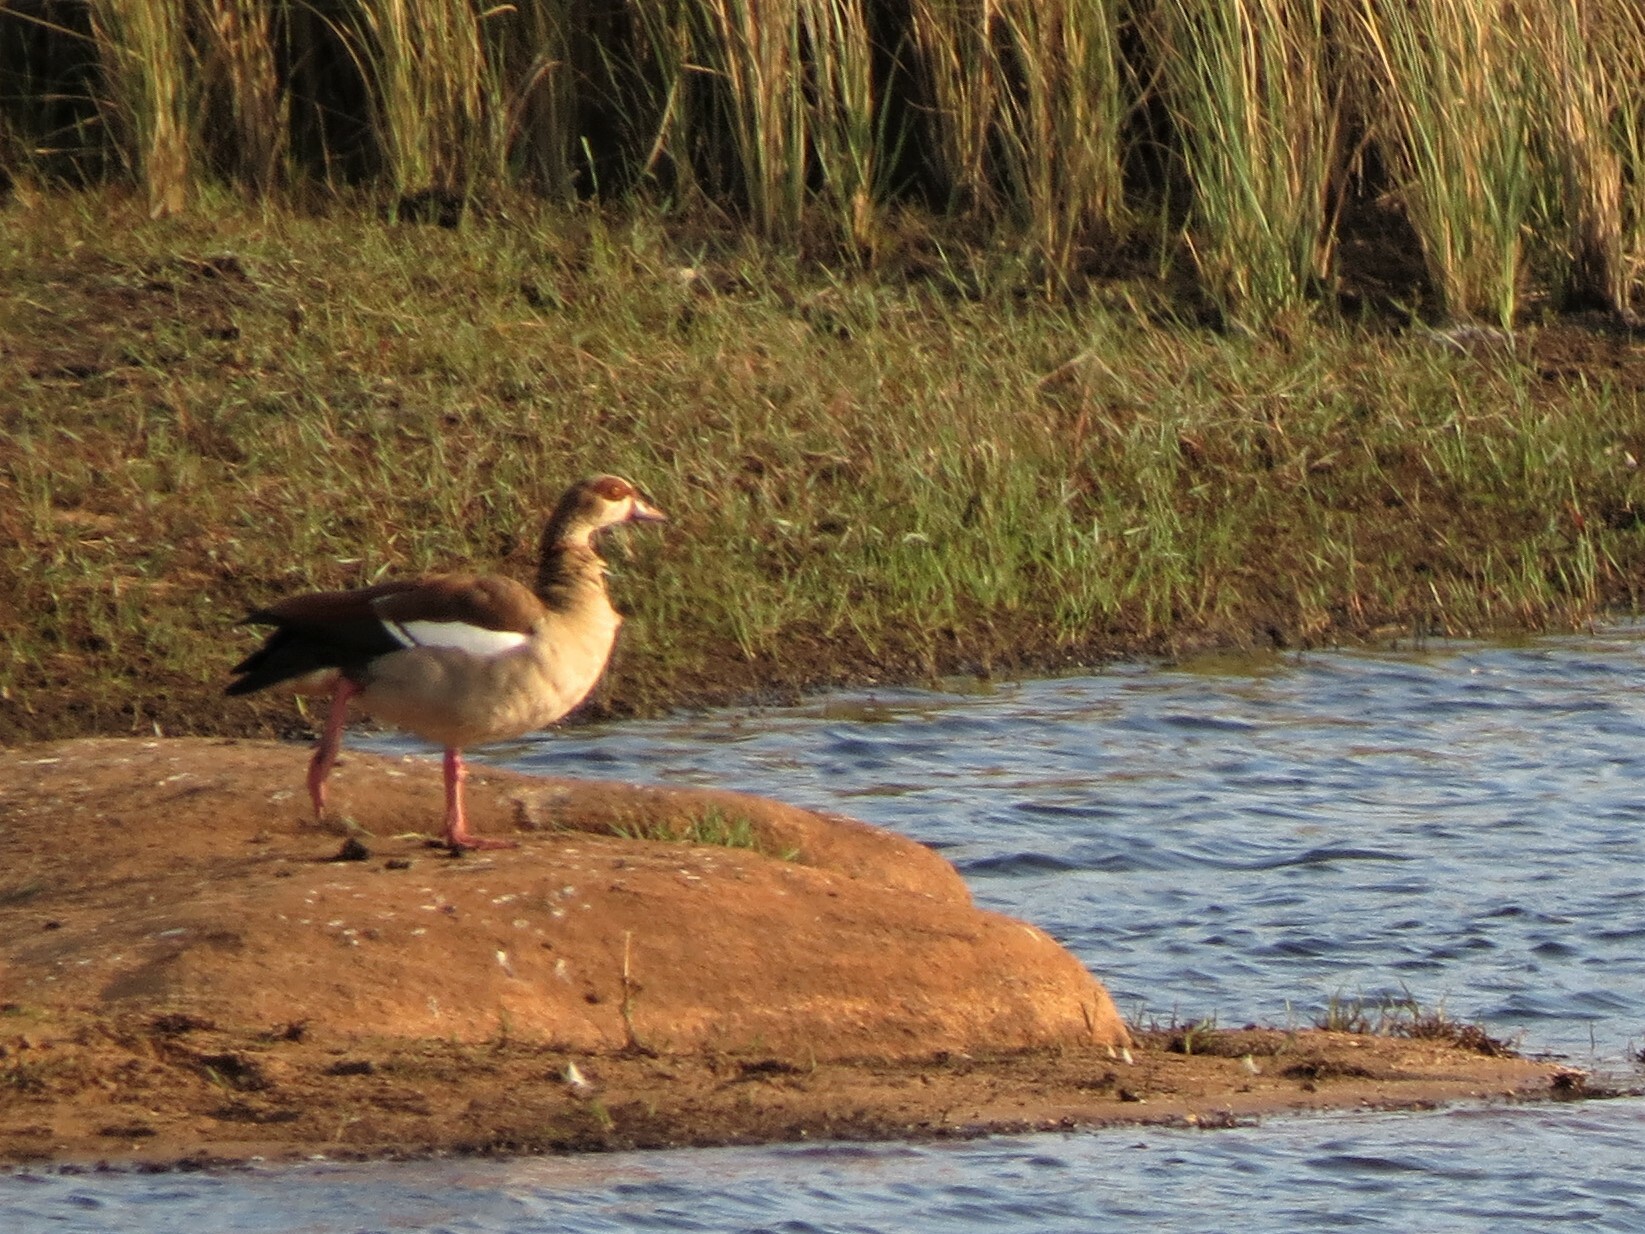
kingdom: Animalia
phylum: Chordata
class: Aves
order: Anseriformes
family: Anatidae
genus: Alopochen
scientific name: Alopochen aegyptiaca
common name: Egyptian goose
